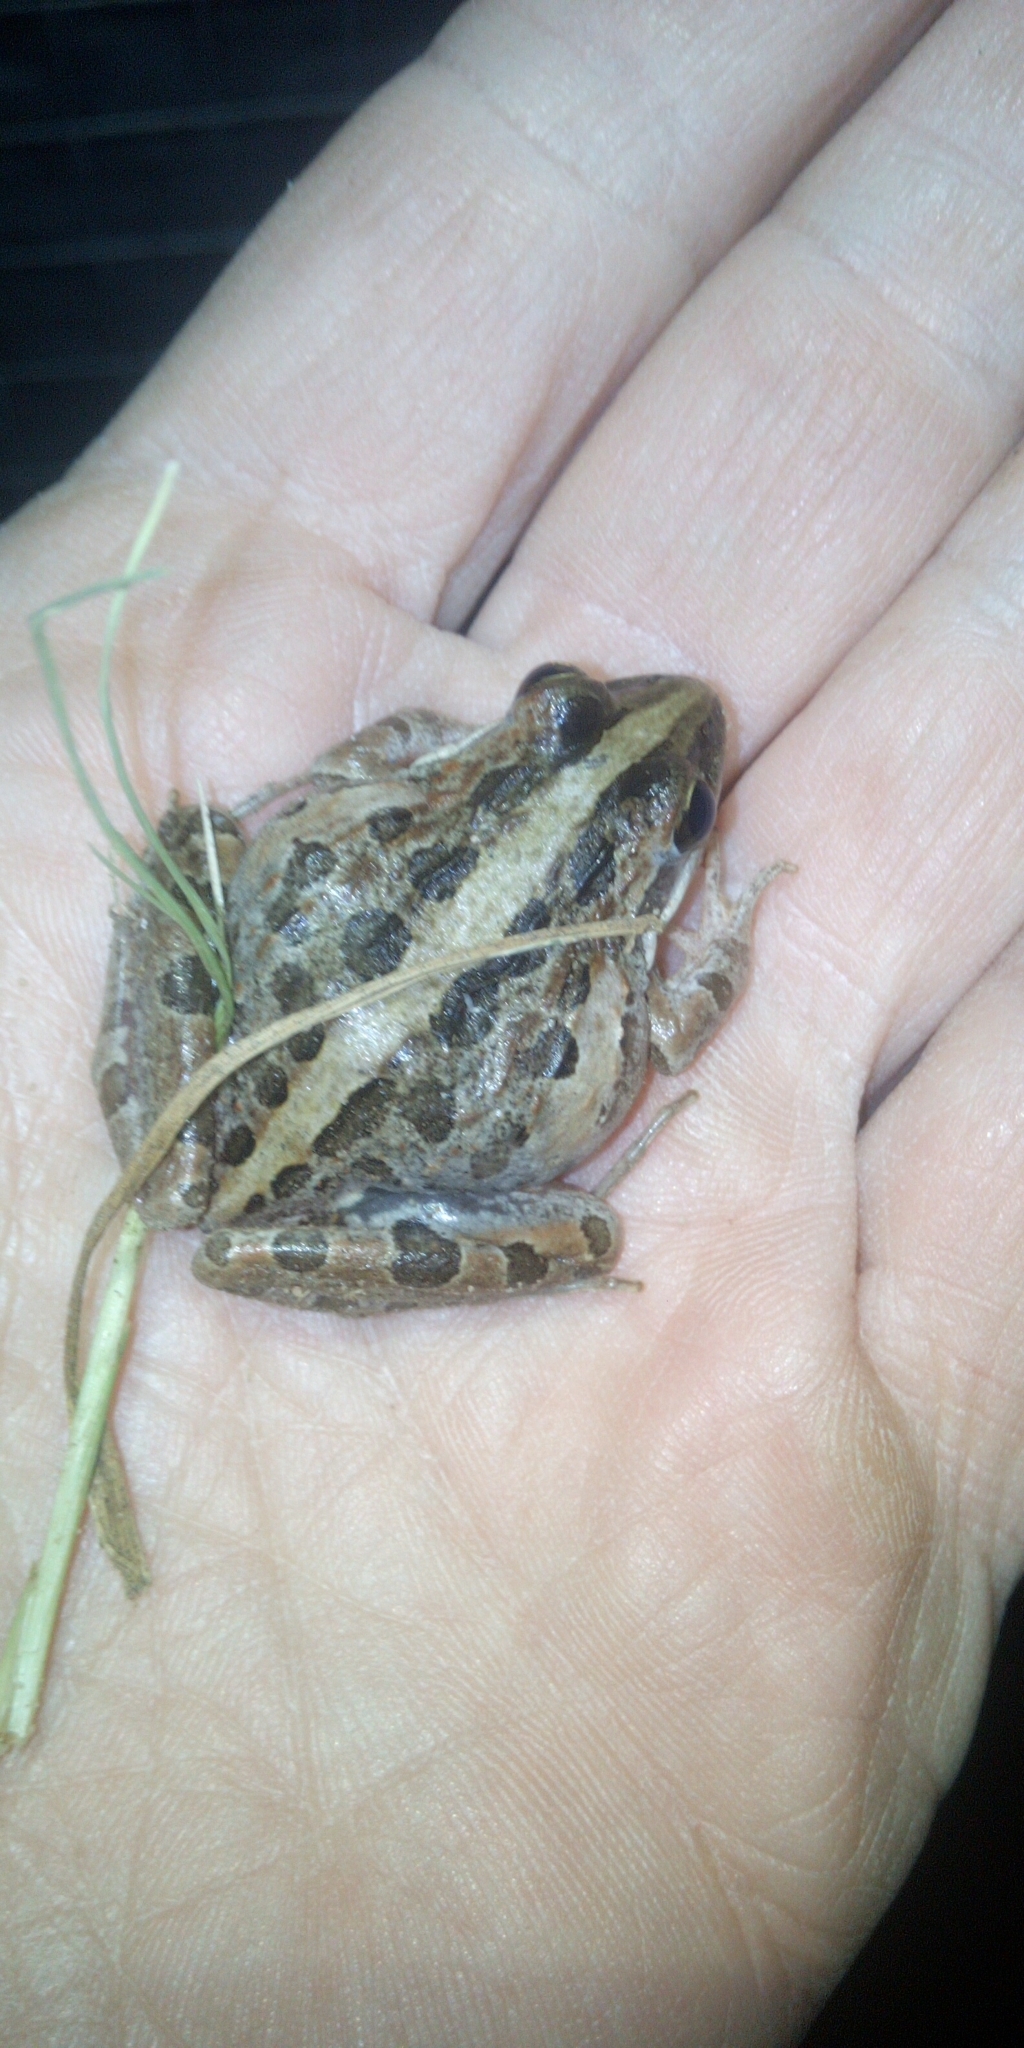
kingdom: Animalia
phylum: Chordata
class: Amphibia
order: Anura
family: Pyxicephalidae
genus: Strongylopus
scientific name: Strongylopus grayii
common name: Gray's stream frog
